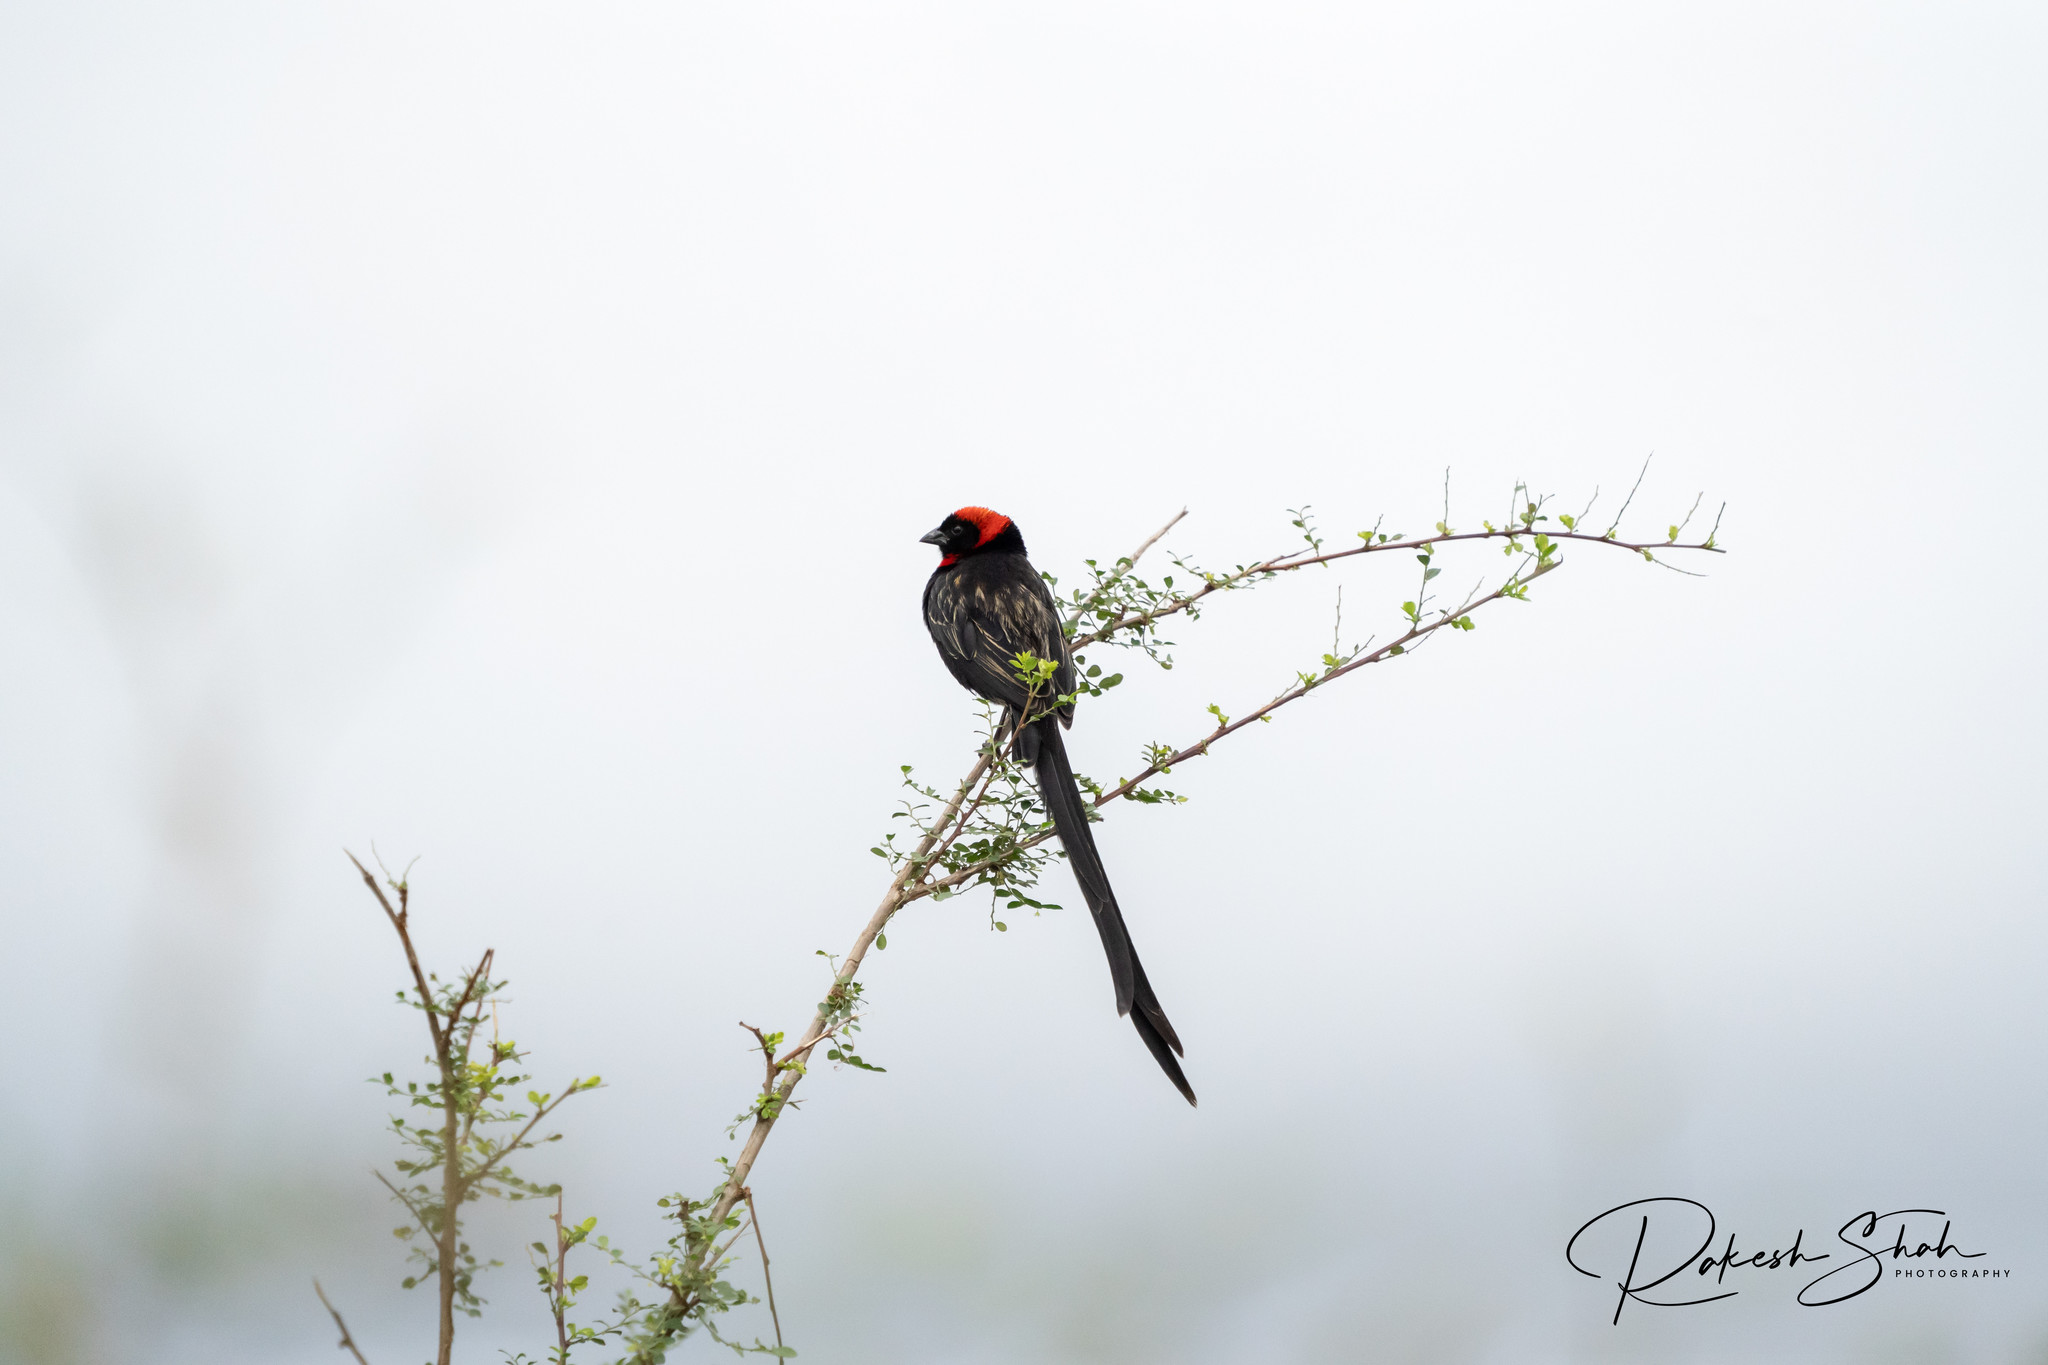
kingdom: Animalia
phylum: Chordata
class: Aves
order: Passeriformes
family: Ploceidae
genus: Euplectes
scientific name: Euplectes ardens
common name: Red-collared widowbird
